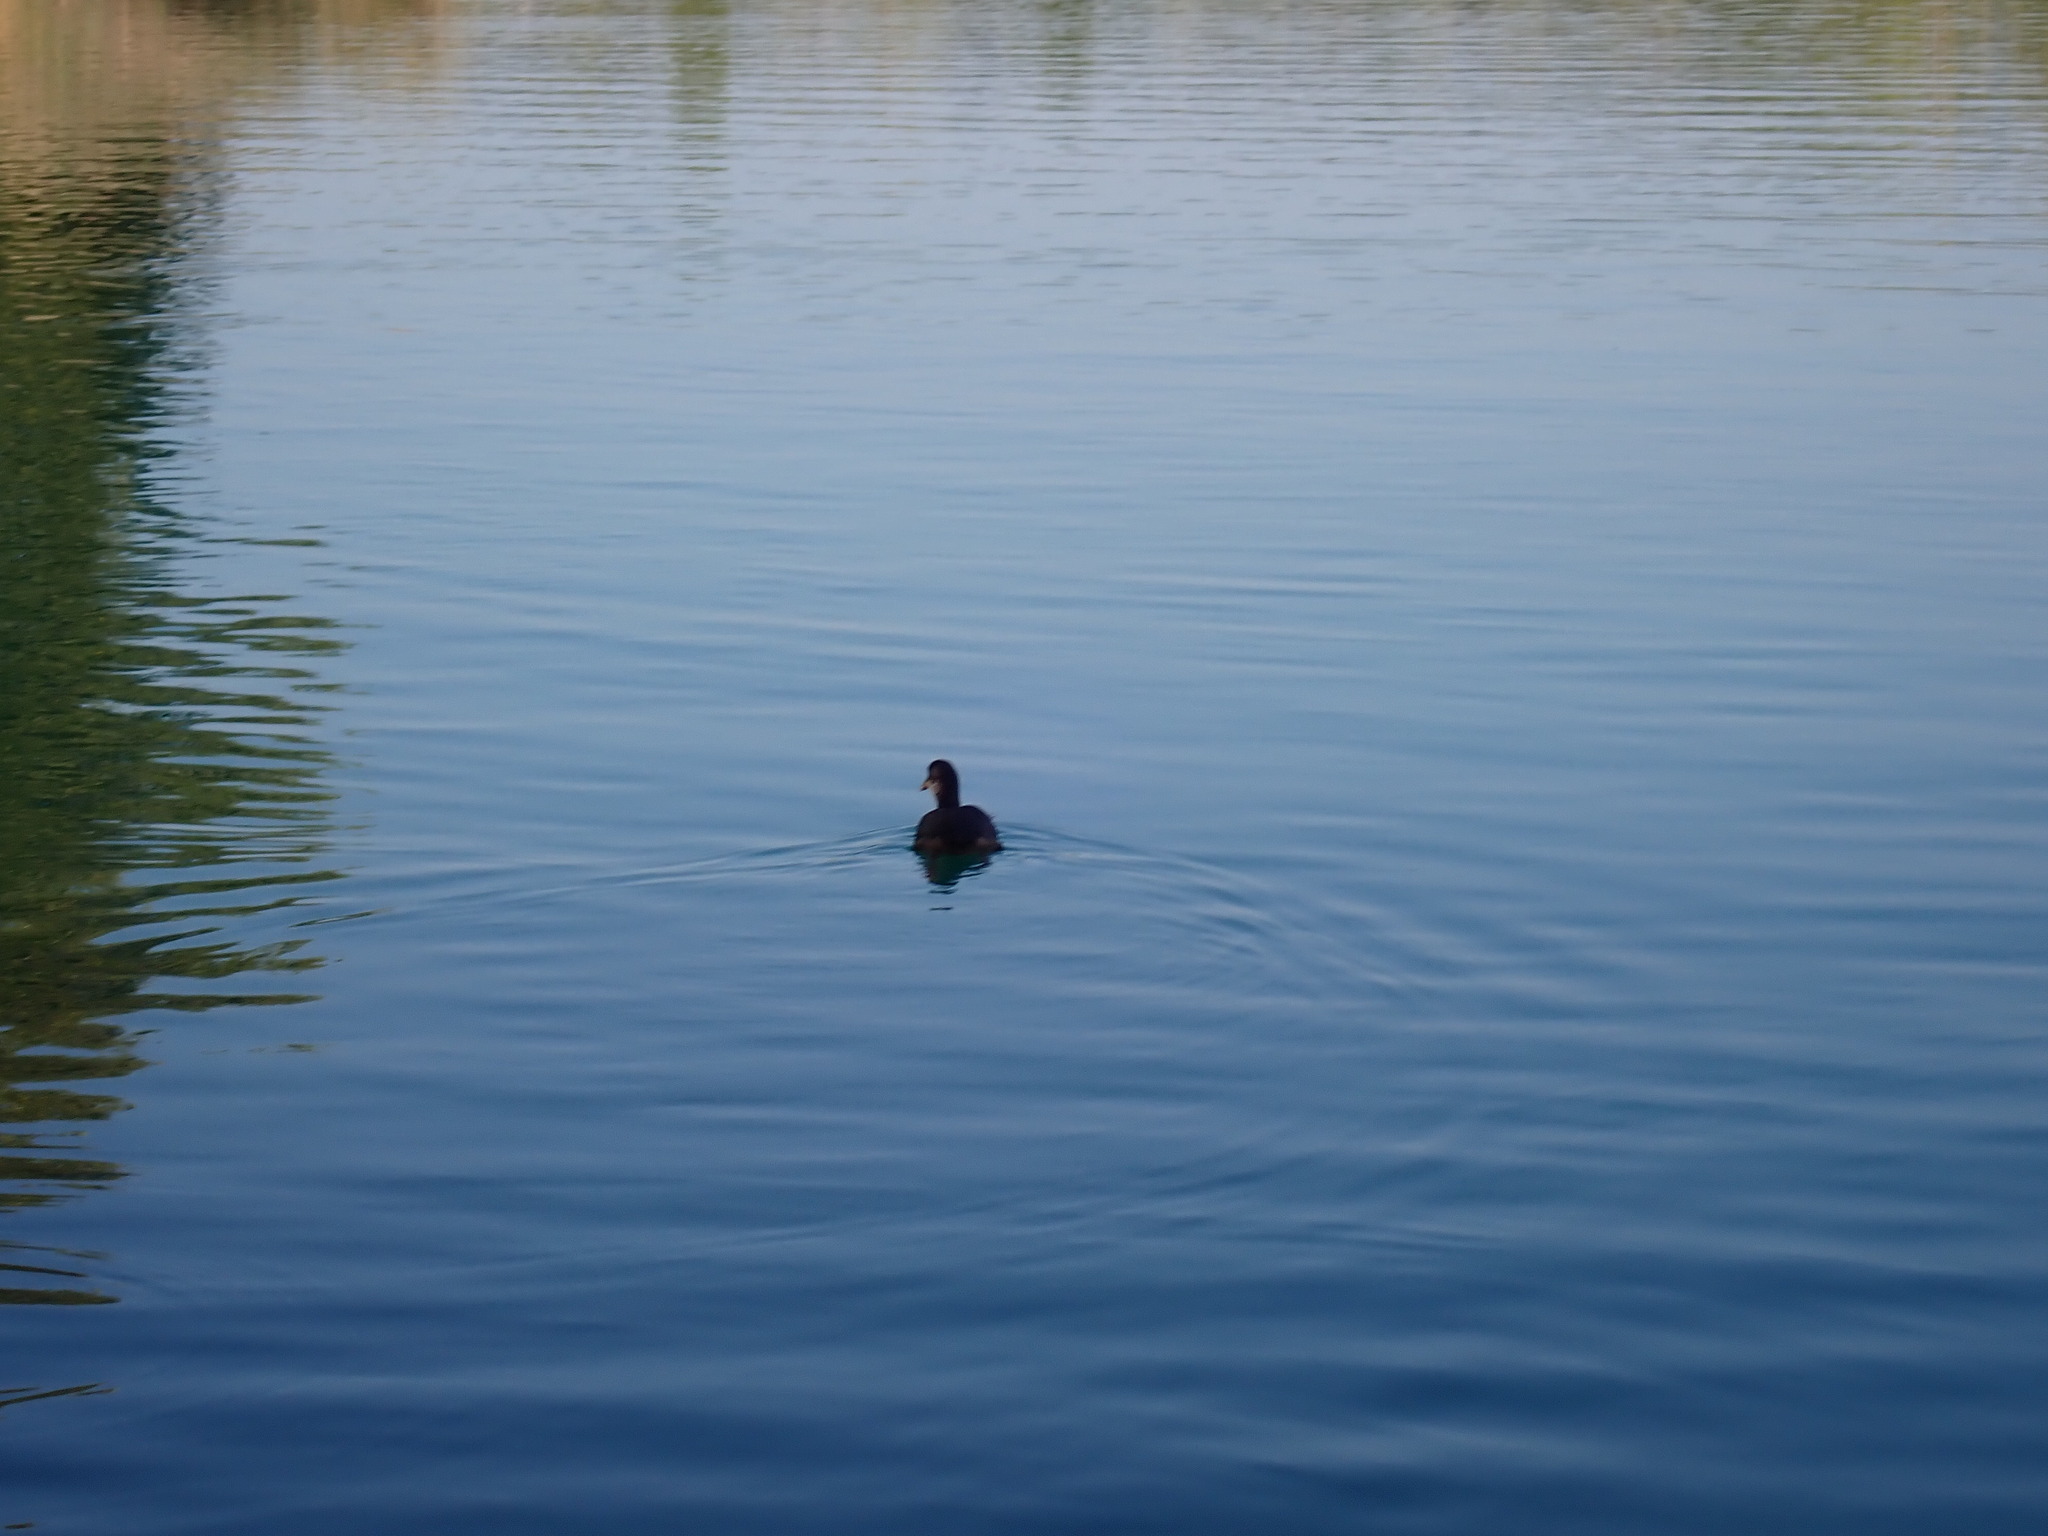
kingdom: Animalia
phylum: Chordata
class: Aves
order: Gruiformes
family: Rallidae
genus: Fulica
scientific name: Fulica atra
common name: Eurasian coot
